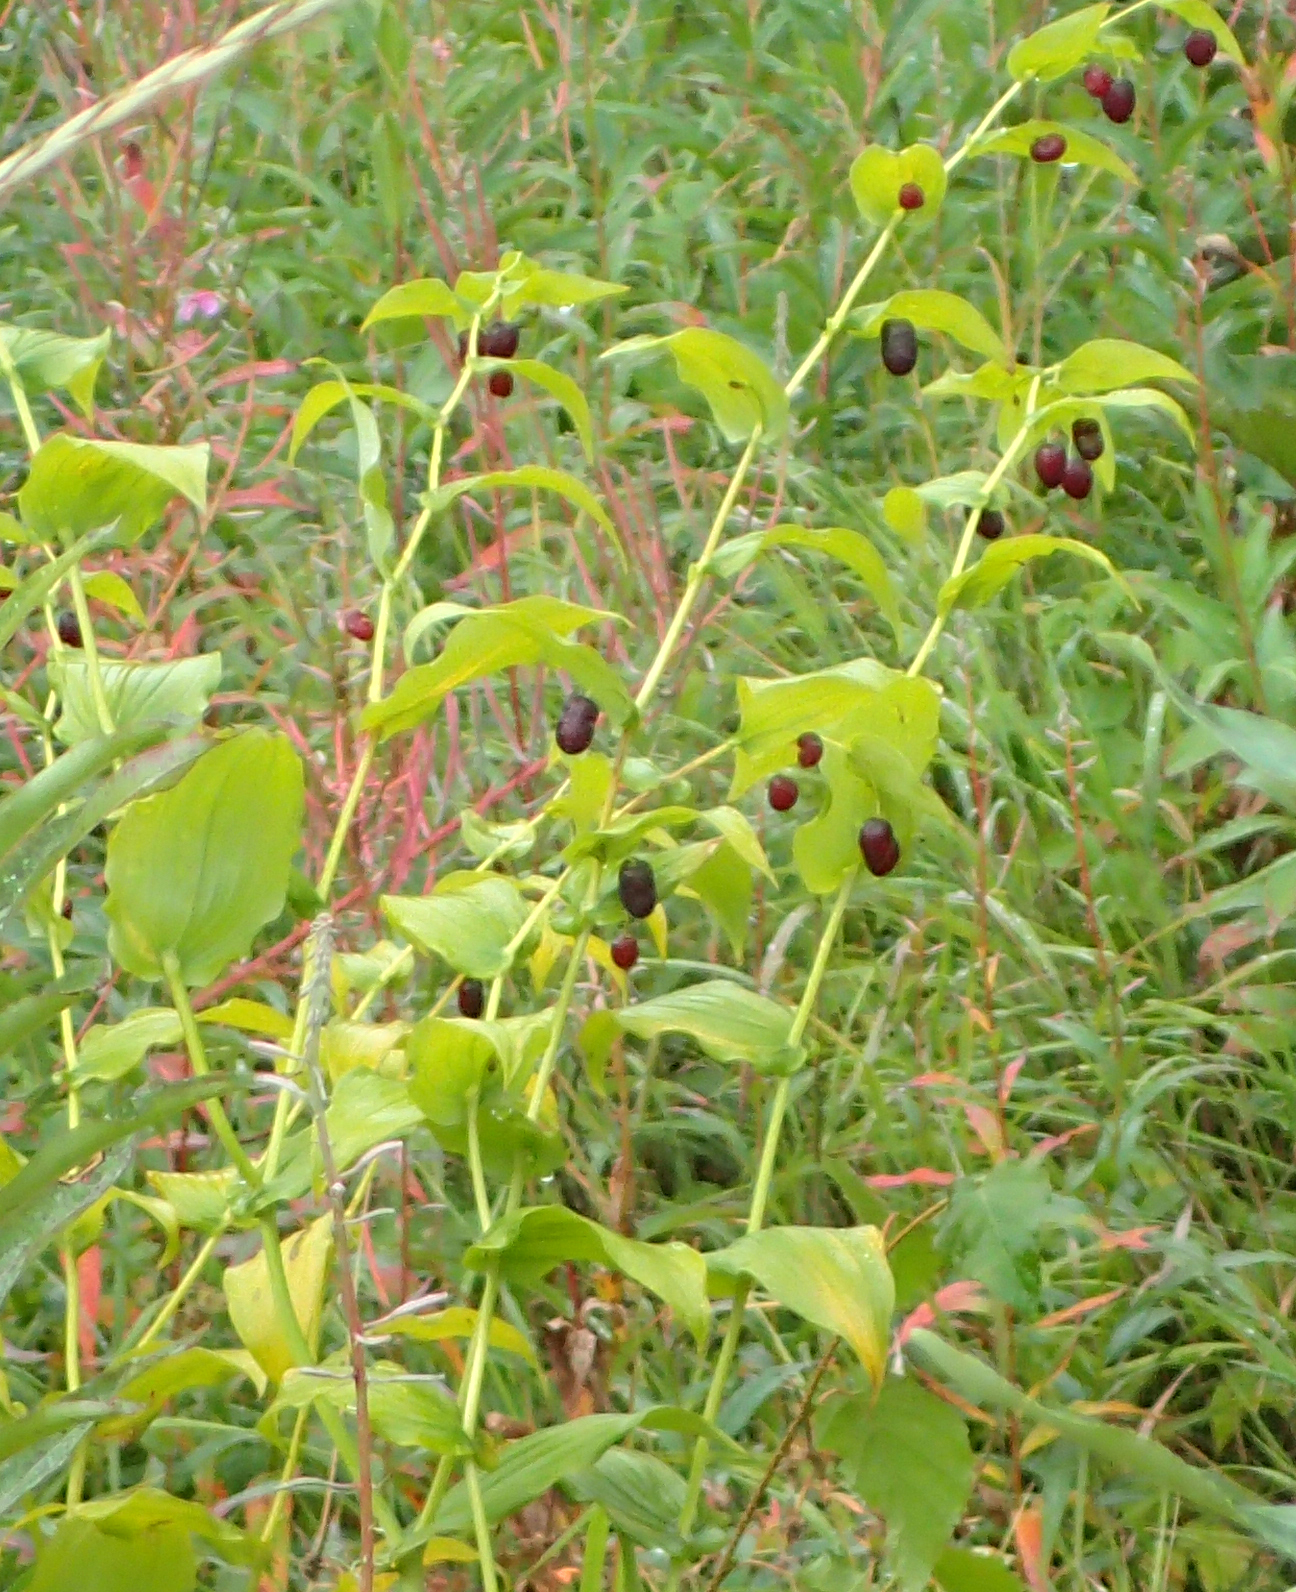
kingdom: Plantae
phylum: Tracheophyta
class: Liliopsida
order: Liliales
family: Liliaceae
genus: Streptopus
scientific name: Streptopus amplexifolius
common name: Clasp twisted stalk
